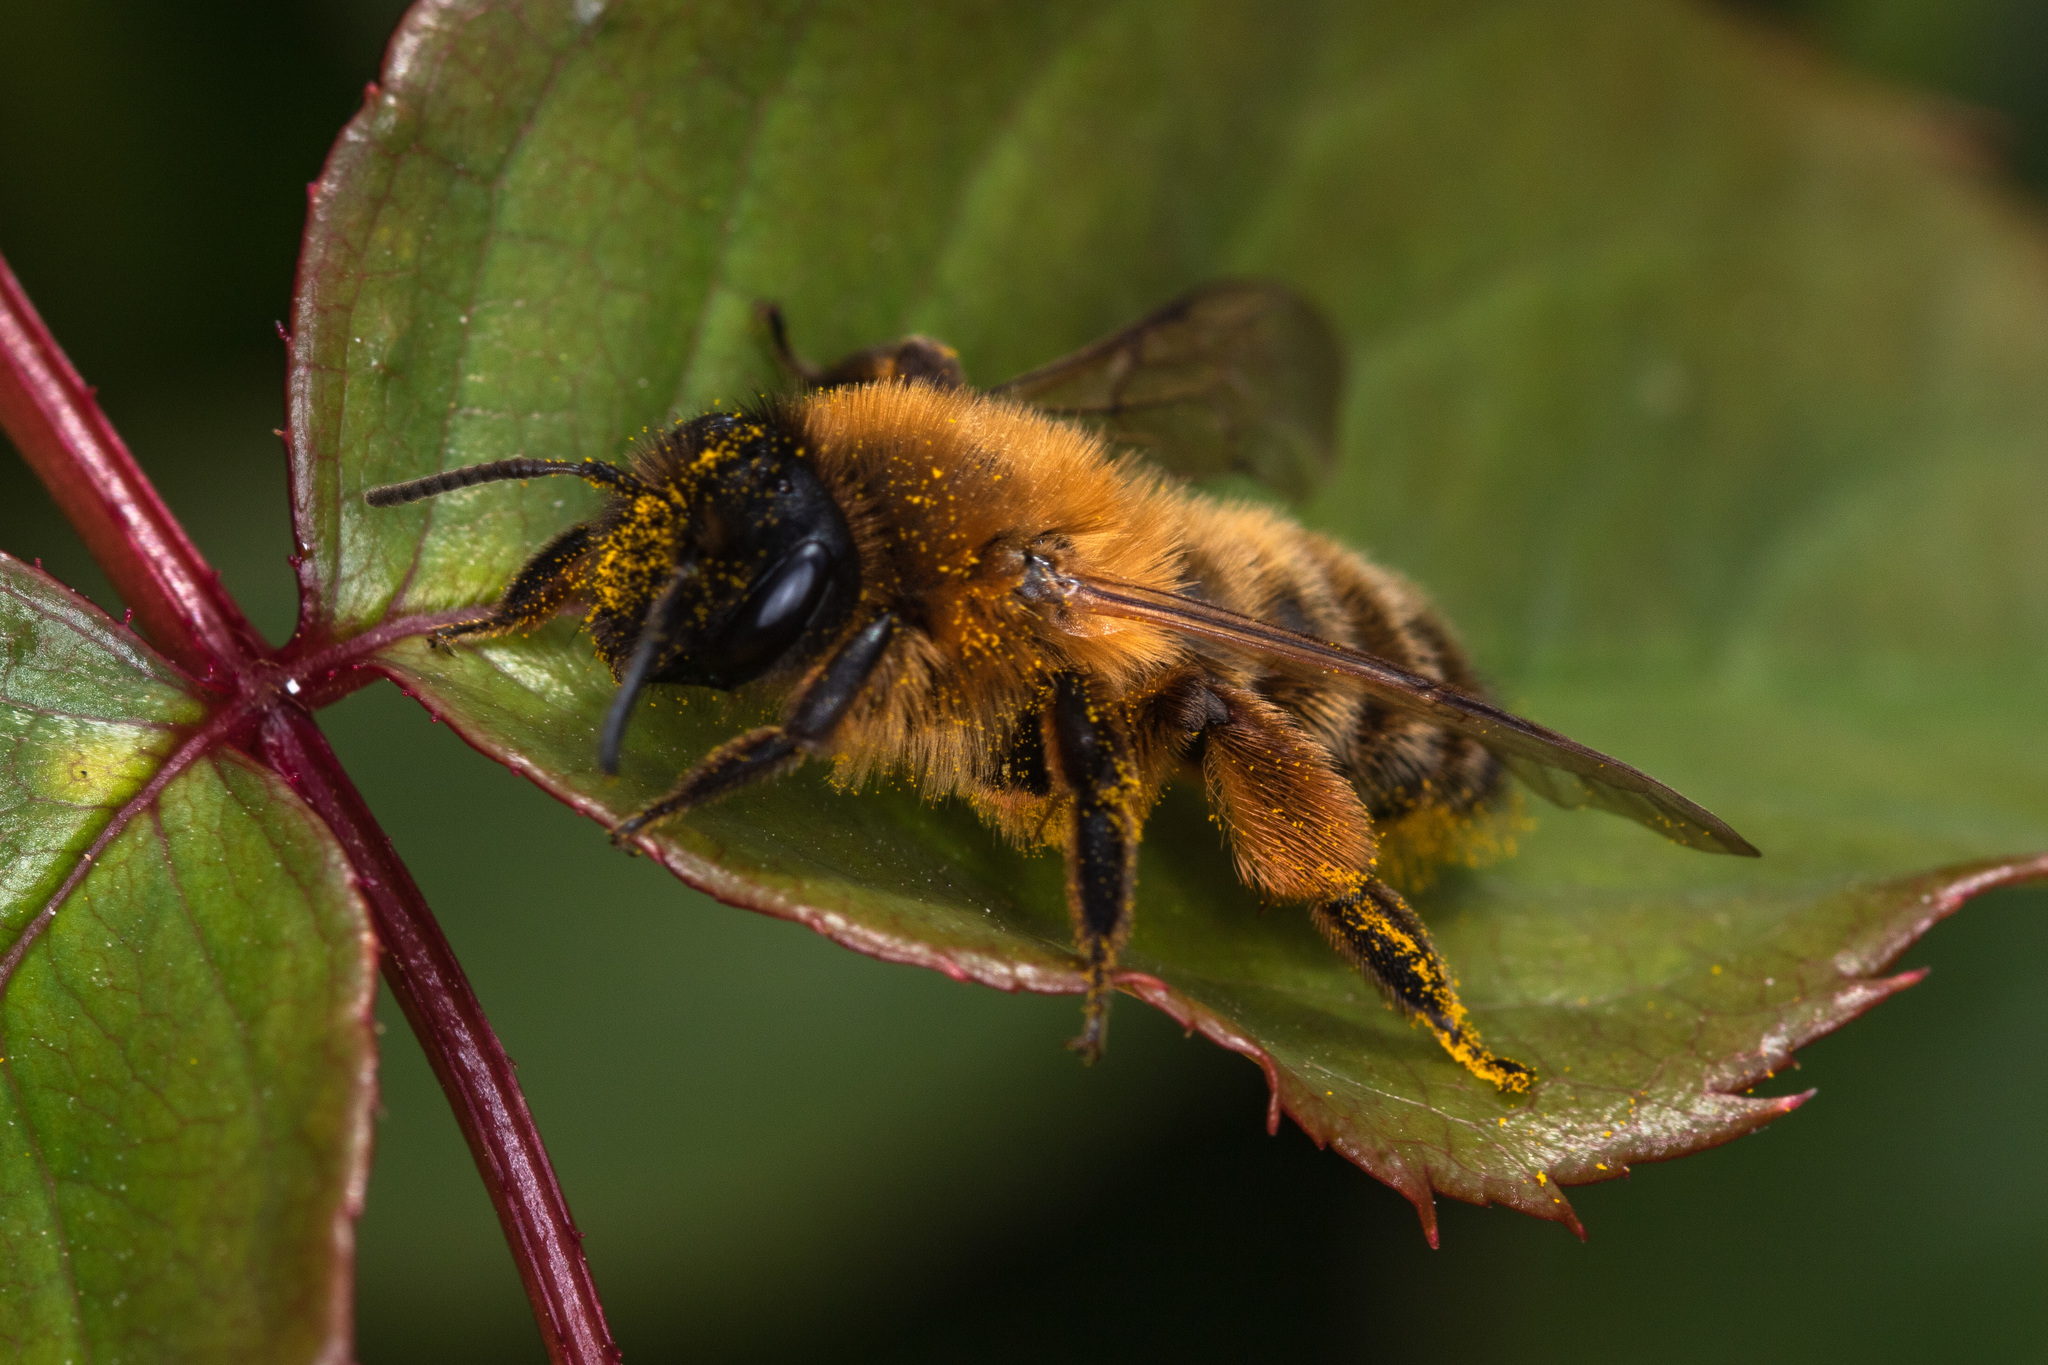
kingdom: Animalia
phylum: Arthropoda
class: Insecta
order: Hymenoptera
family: Andrenidae
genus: Andrena
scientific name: Andrena nigroaenea
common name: Buffish mining bee
